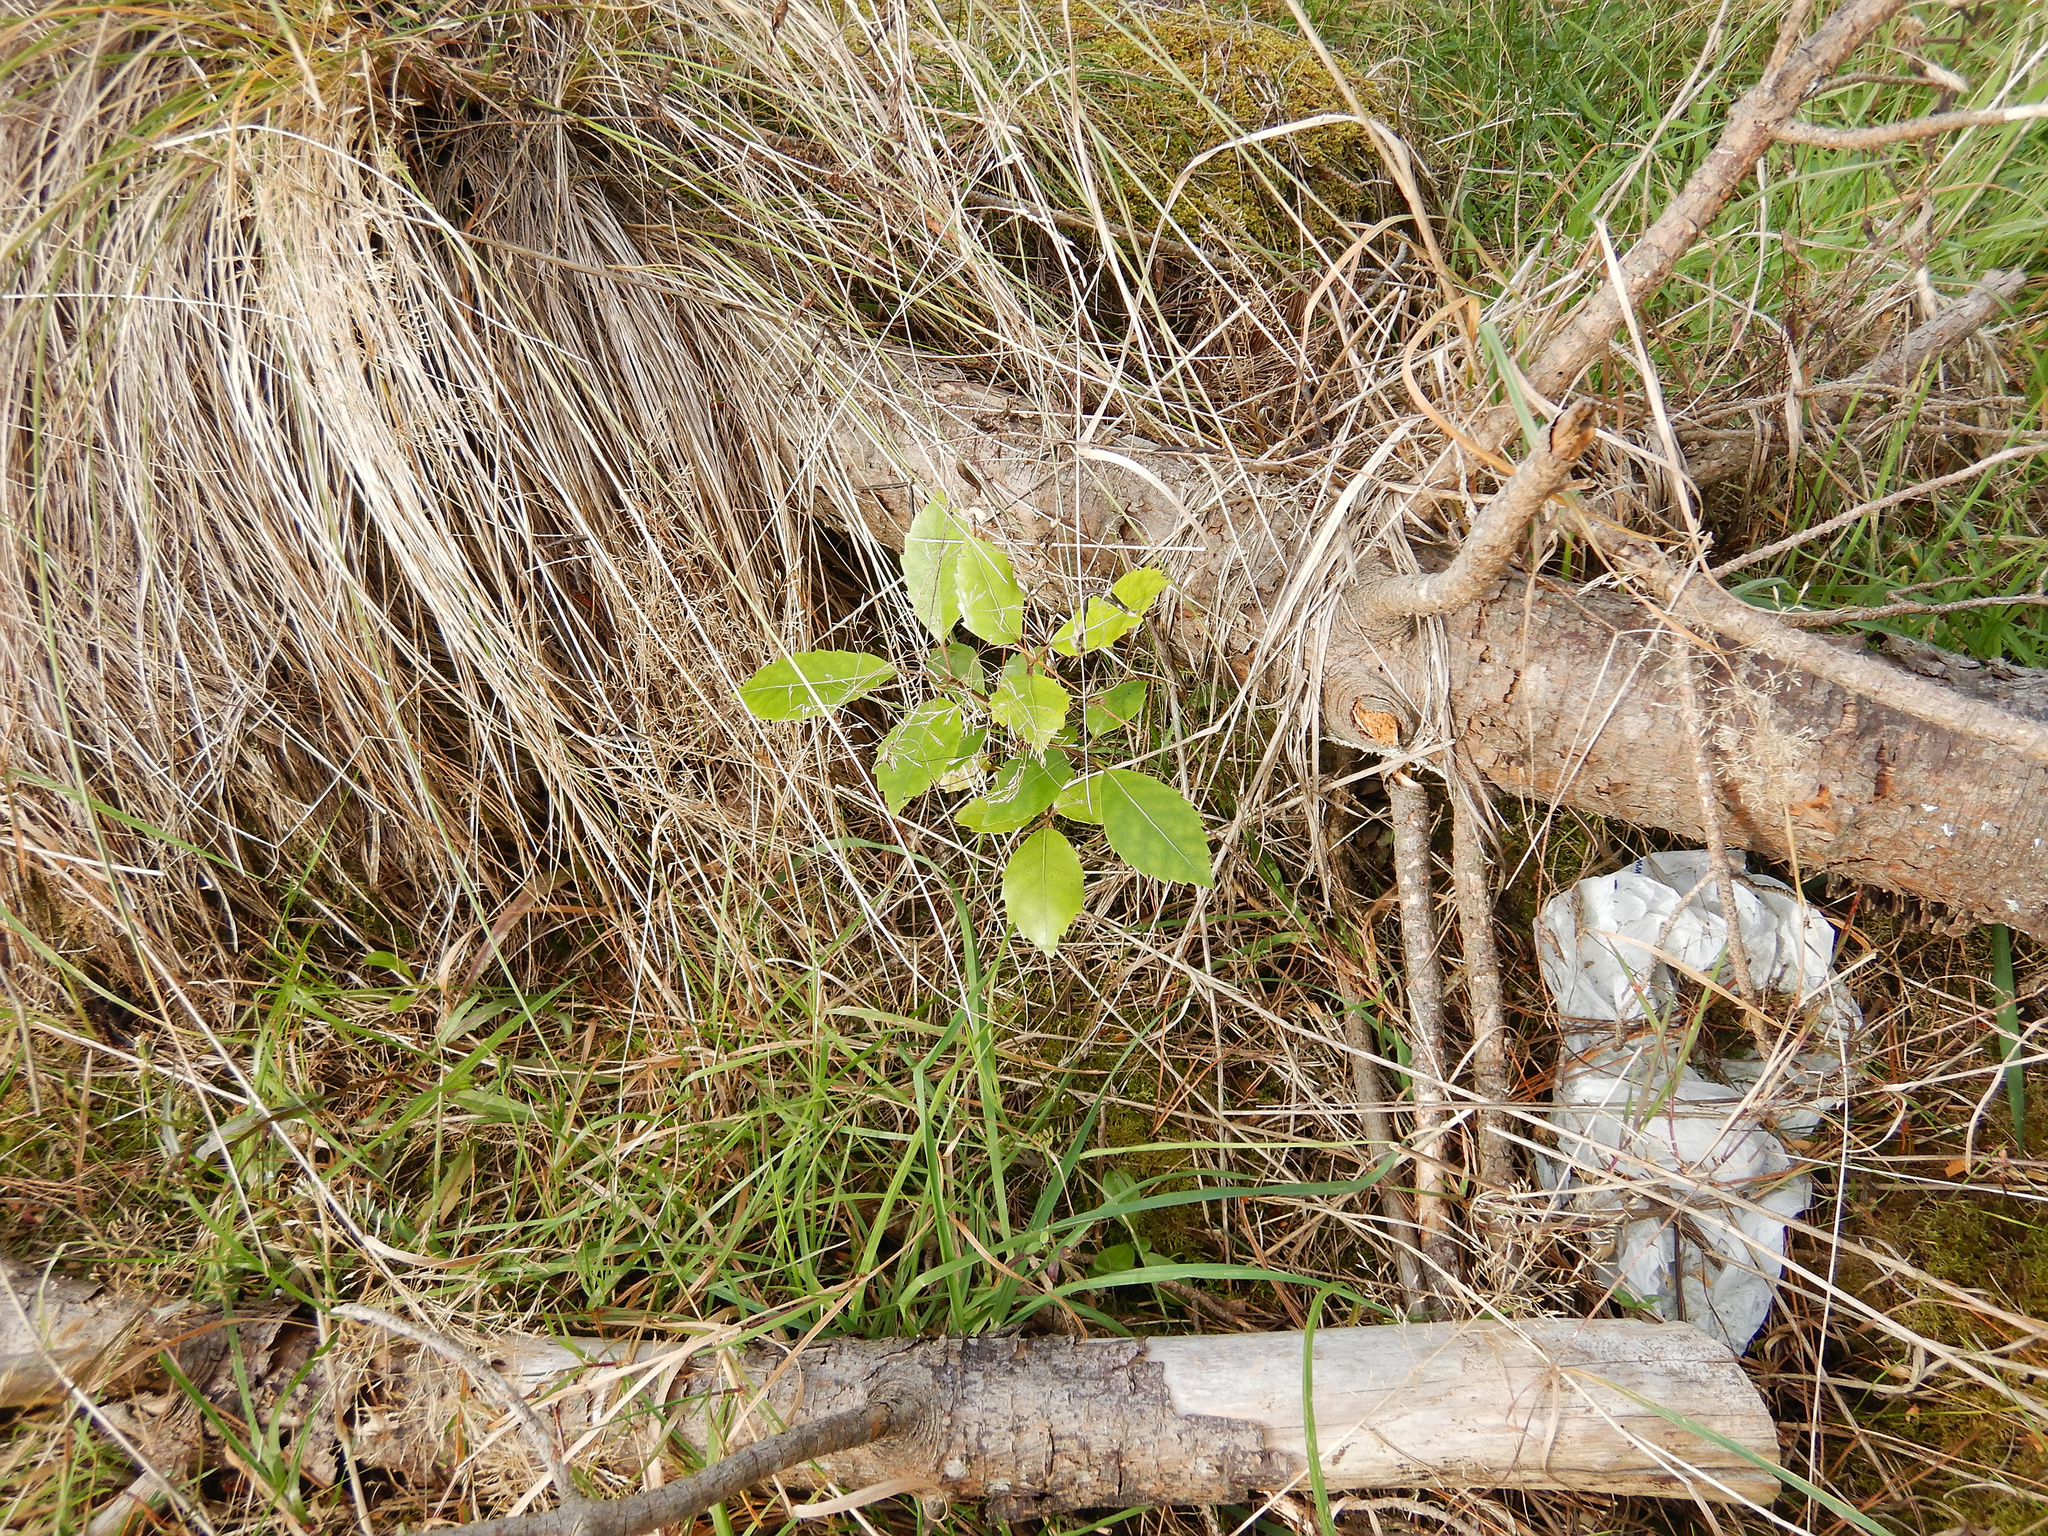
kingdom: Plantae
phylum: Tracheophyta
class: Magnoliopsida
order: Apiales
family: Araliaceae
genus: Neopanax
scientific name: Neopanax arboreus
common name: Five-fingers
